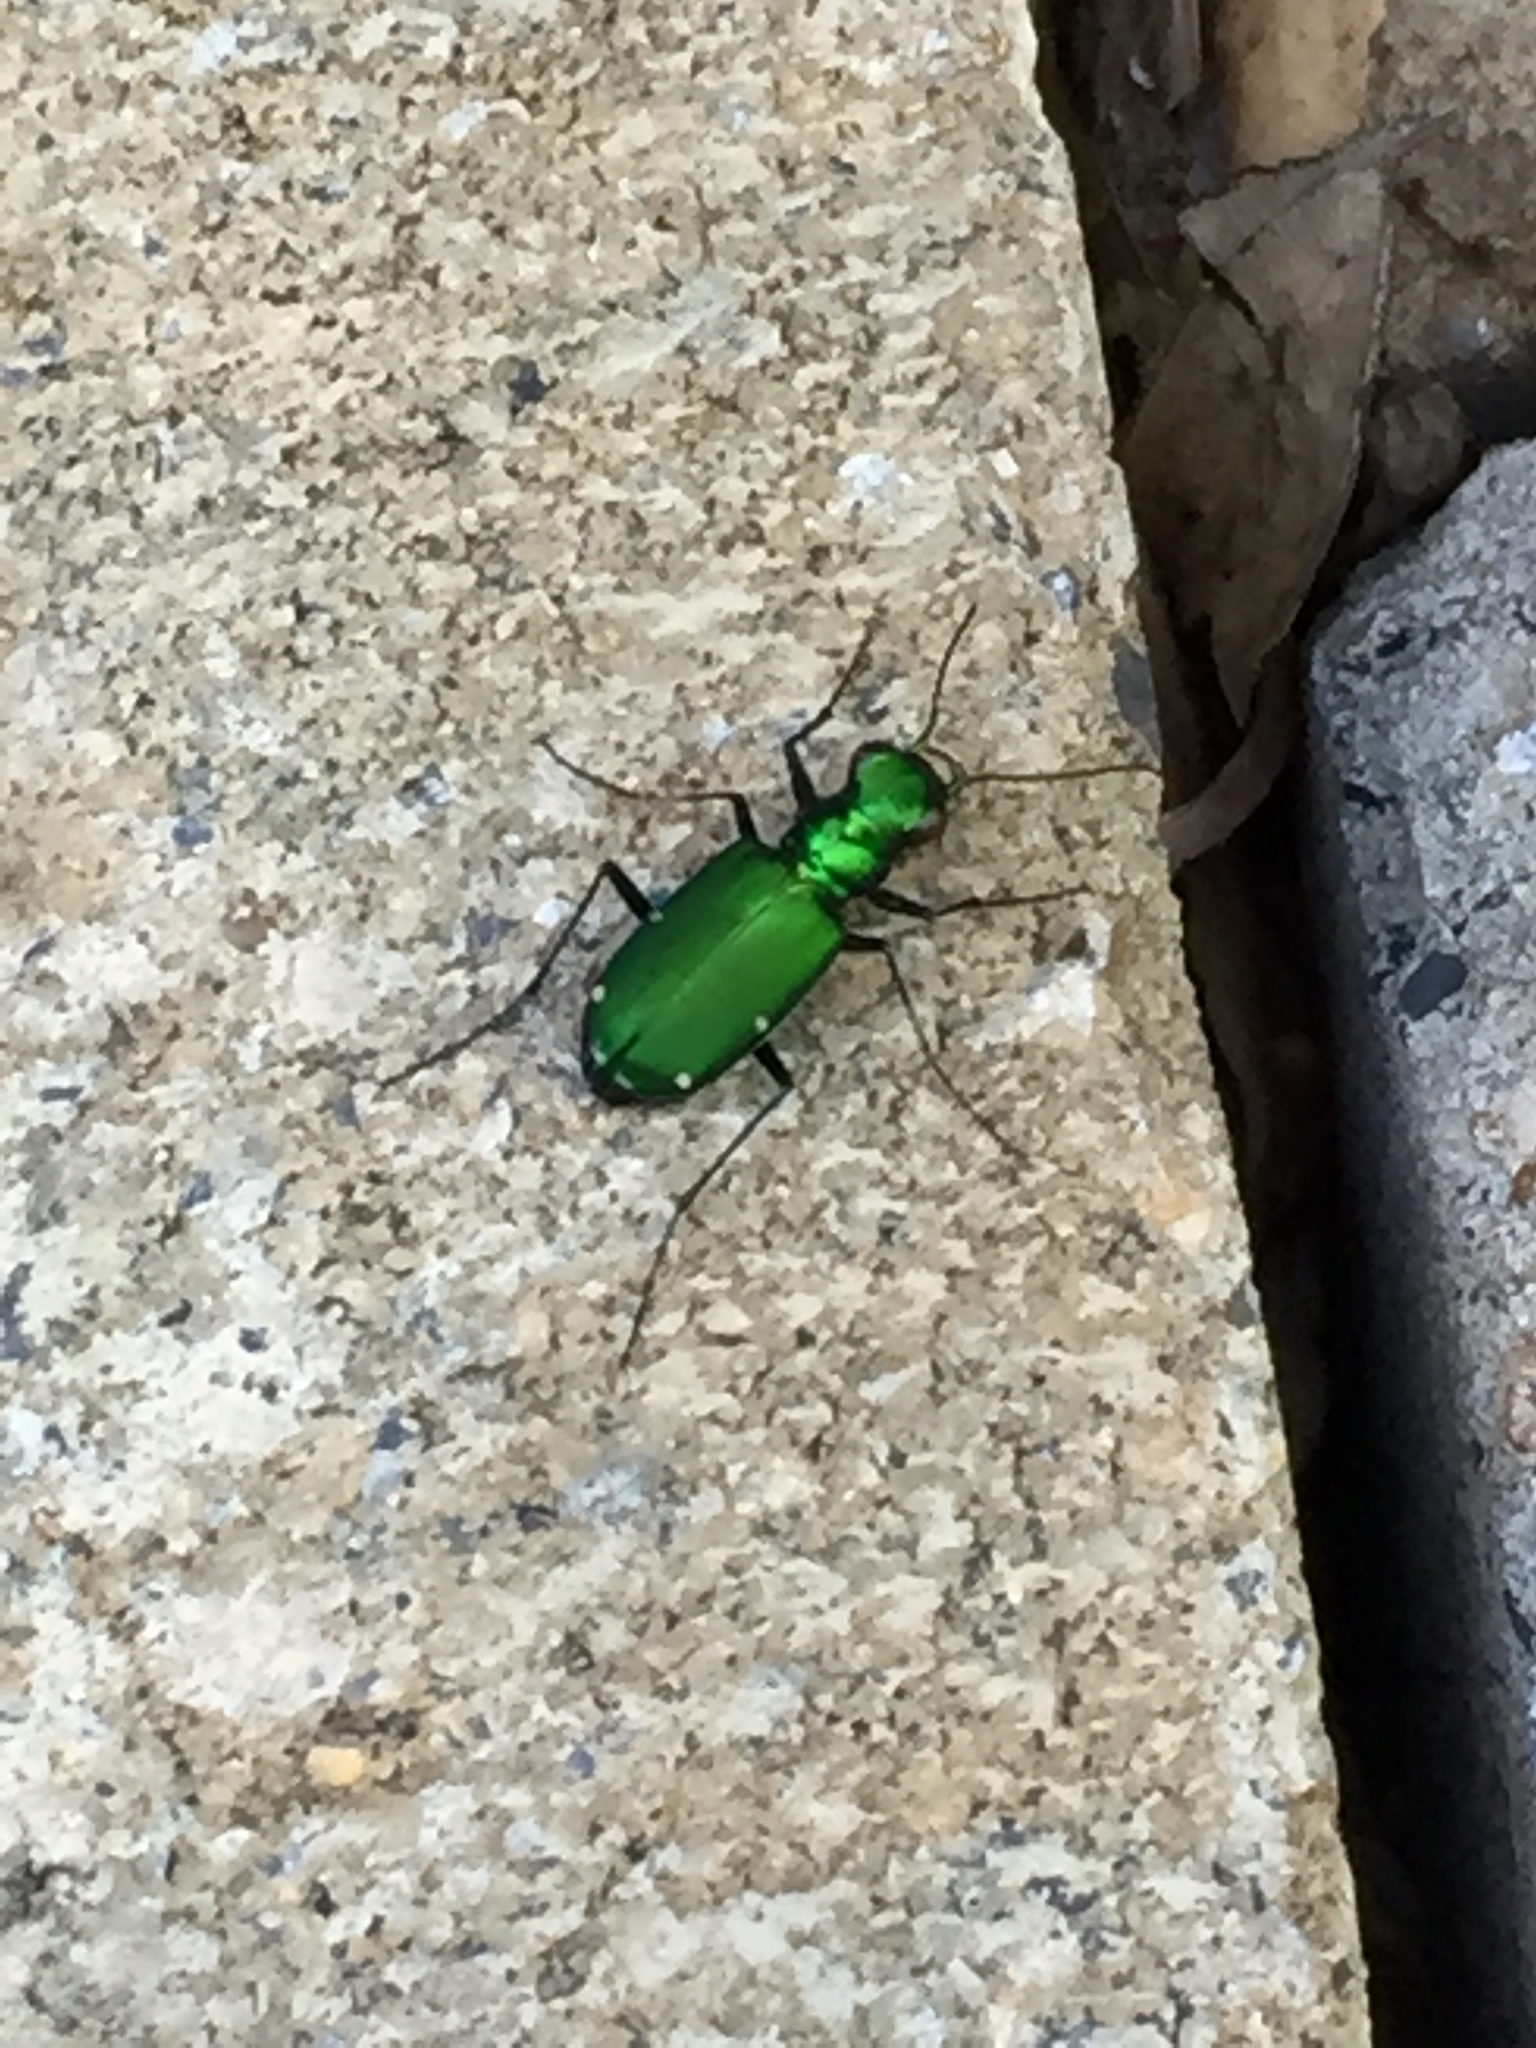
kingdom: Animalia
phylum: Arthropoda
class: Insecta
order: Coleoptera
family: Carabidae
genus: Cicindela
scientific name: Cicindela sexguttata
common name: Six-spotted tiger beetle
